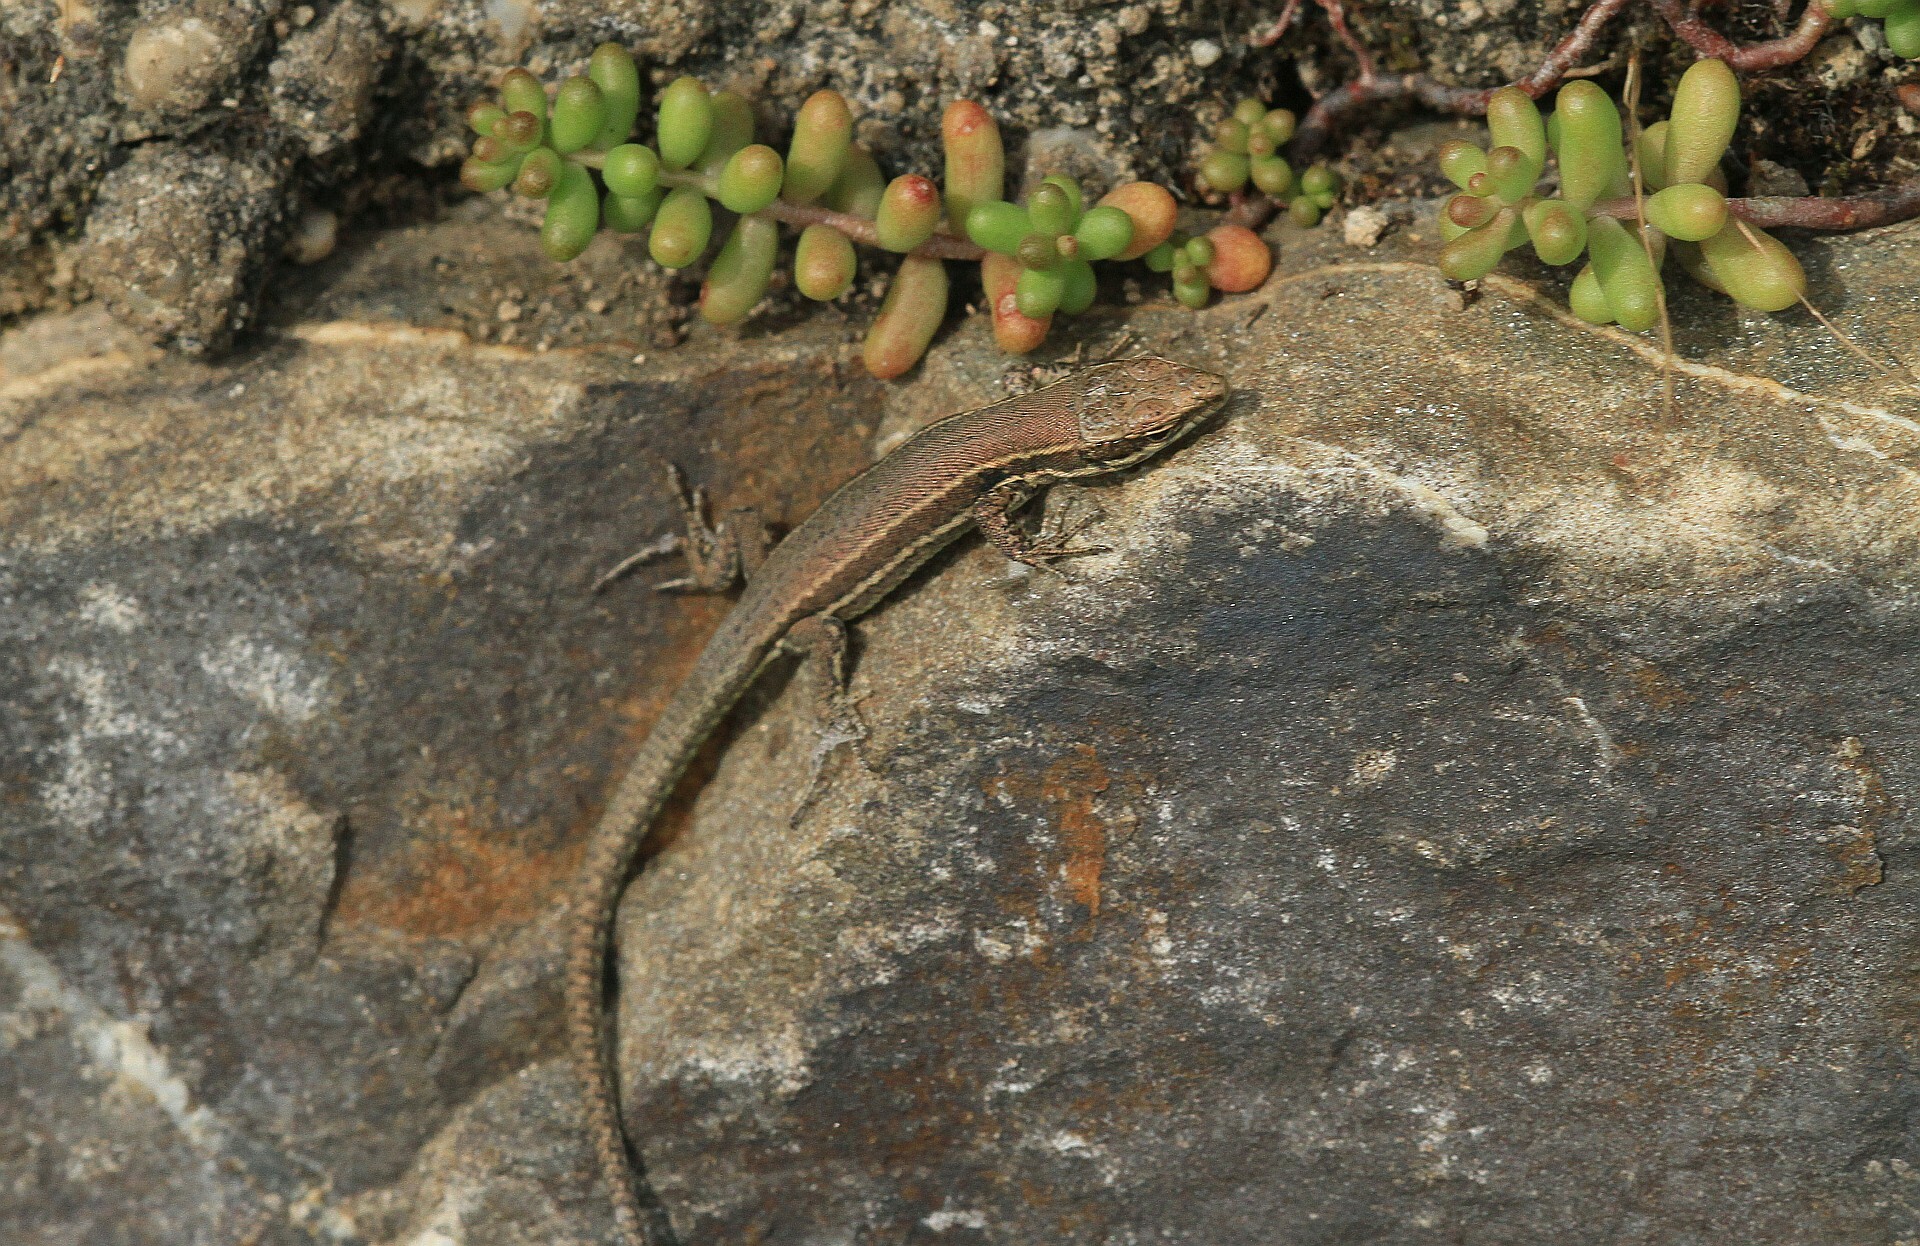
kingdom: Animalia
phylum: Chordata
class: Squamata
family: Lacertidae
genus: Podarcis
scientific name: Podarcis muralis
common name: Common wall lizard
